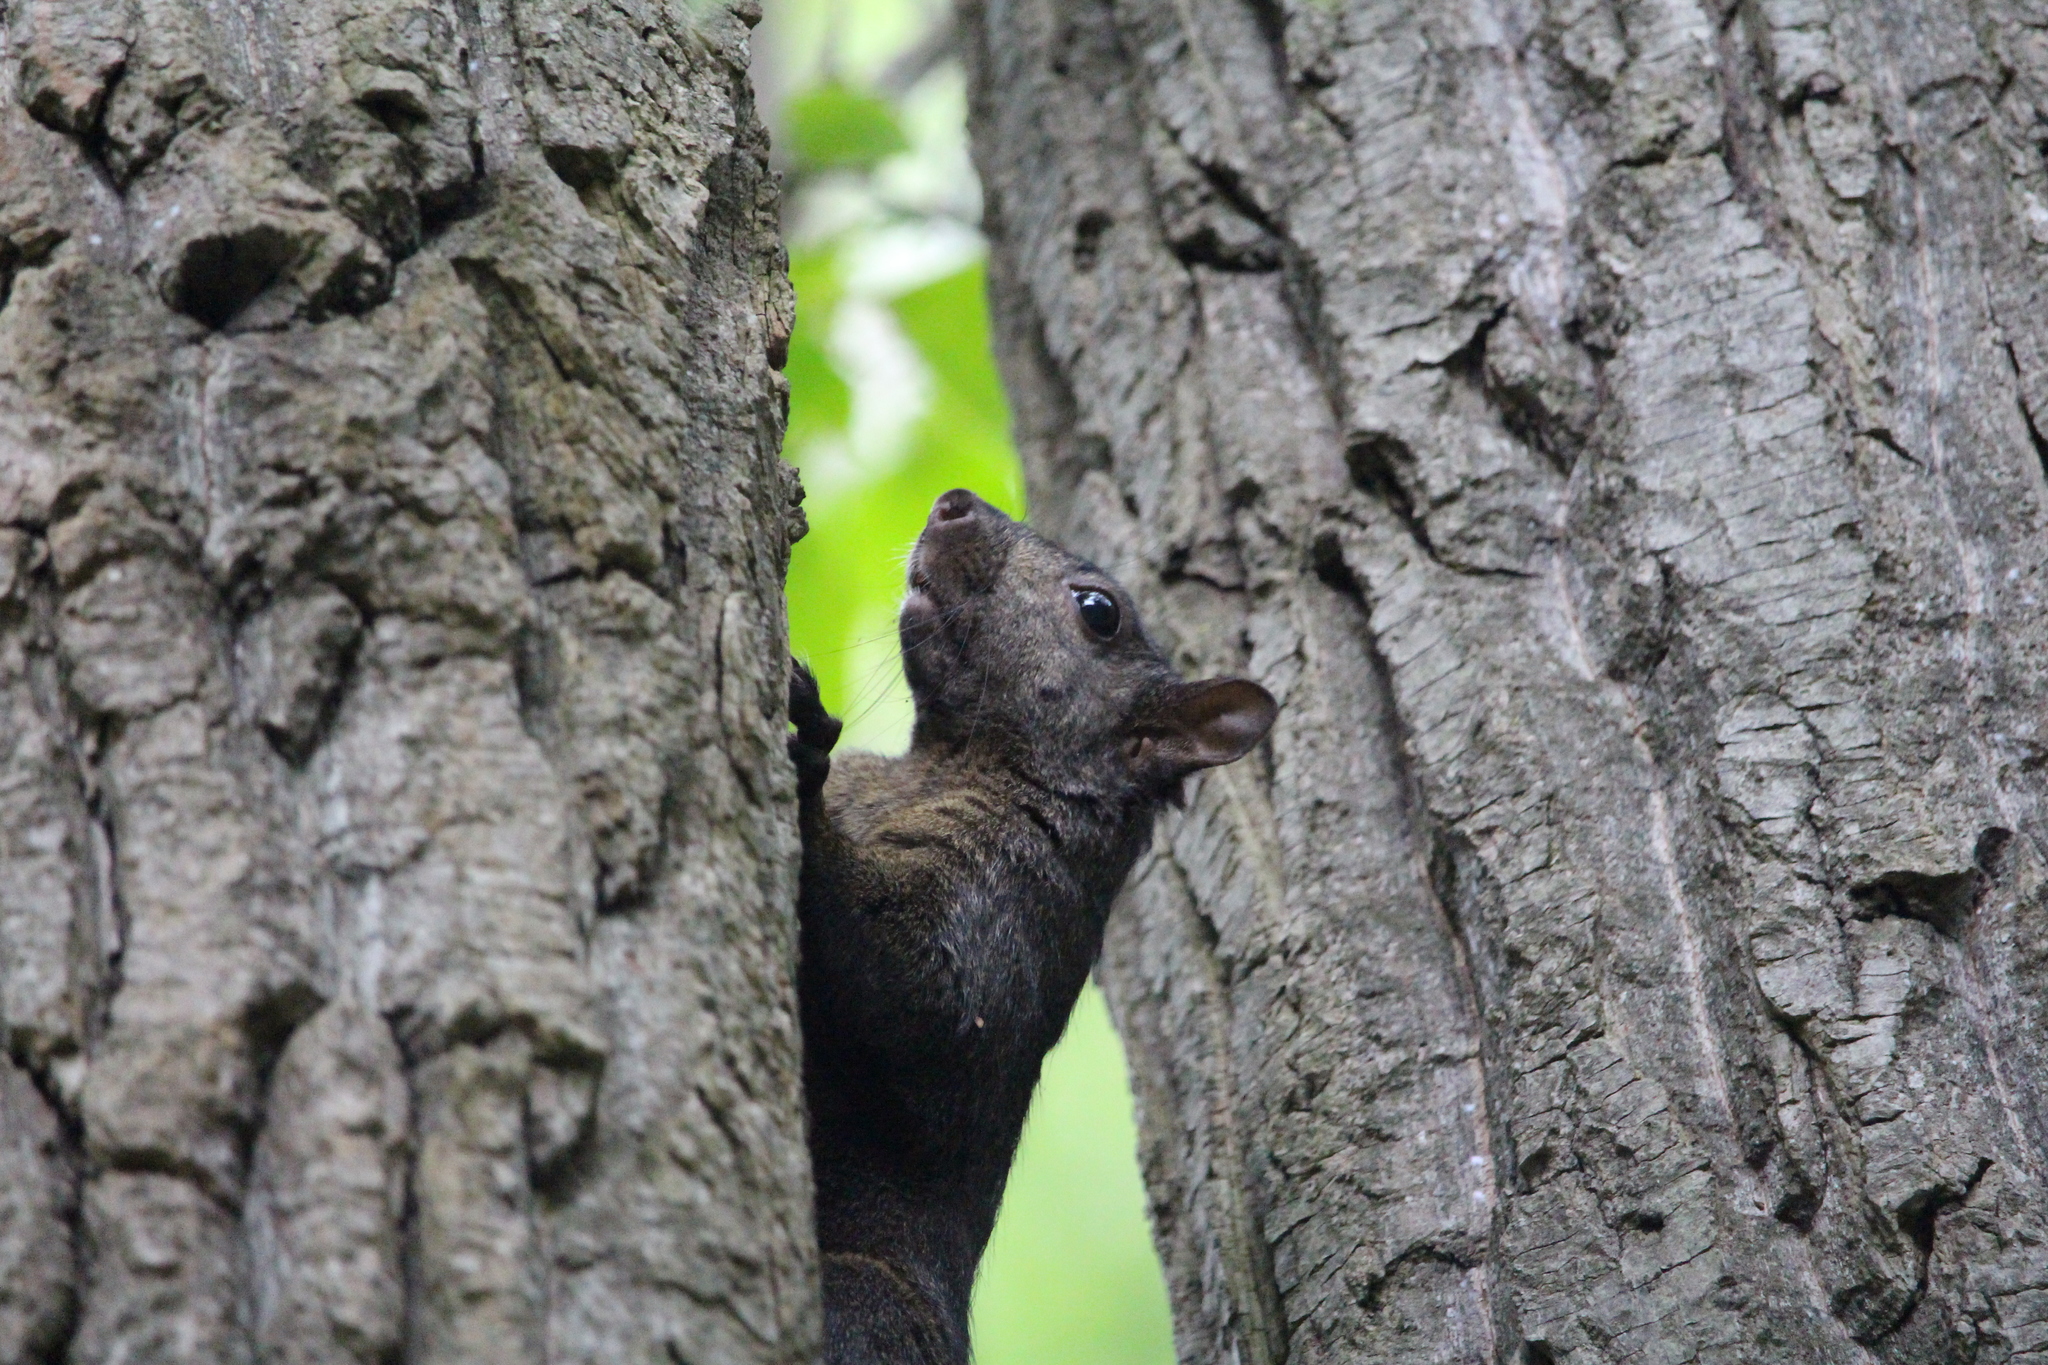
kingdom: Animalia
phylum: Chordata
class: Mammalia
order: Rodentia
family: Sciuridae
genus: Sciurus
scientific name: Sciurus carolinensis
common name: Eastern gray squirrel
